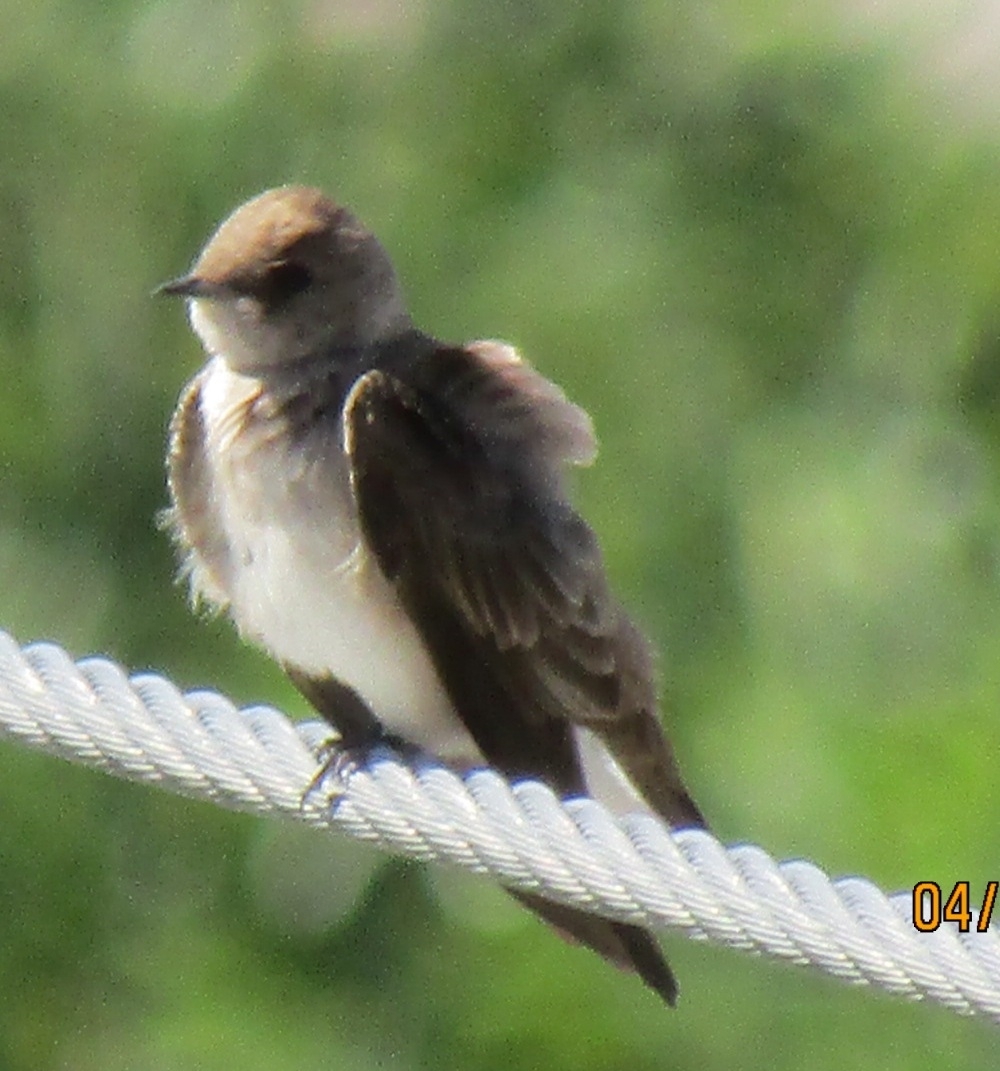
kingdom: Animalia
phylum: Chordata
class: Aves
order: Passeriformes
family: Hirundinidae
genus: Stelgidopteryx
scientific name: Stelgidopteryx serripennis
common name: Northern rough-winged swallow
